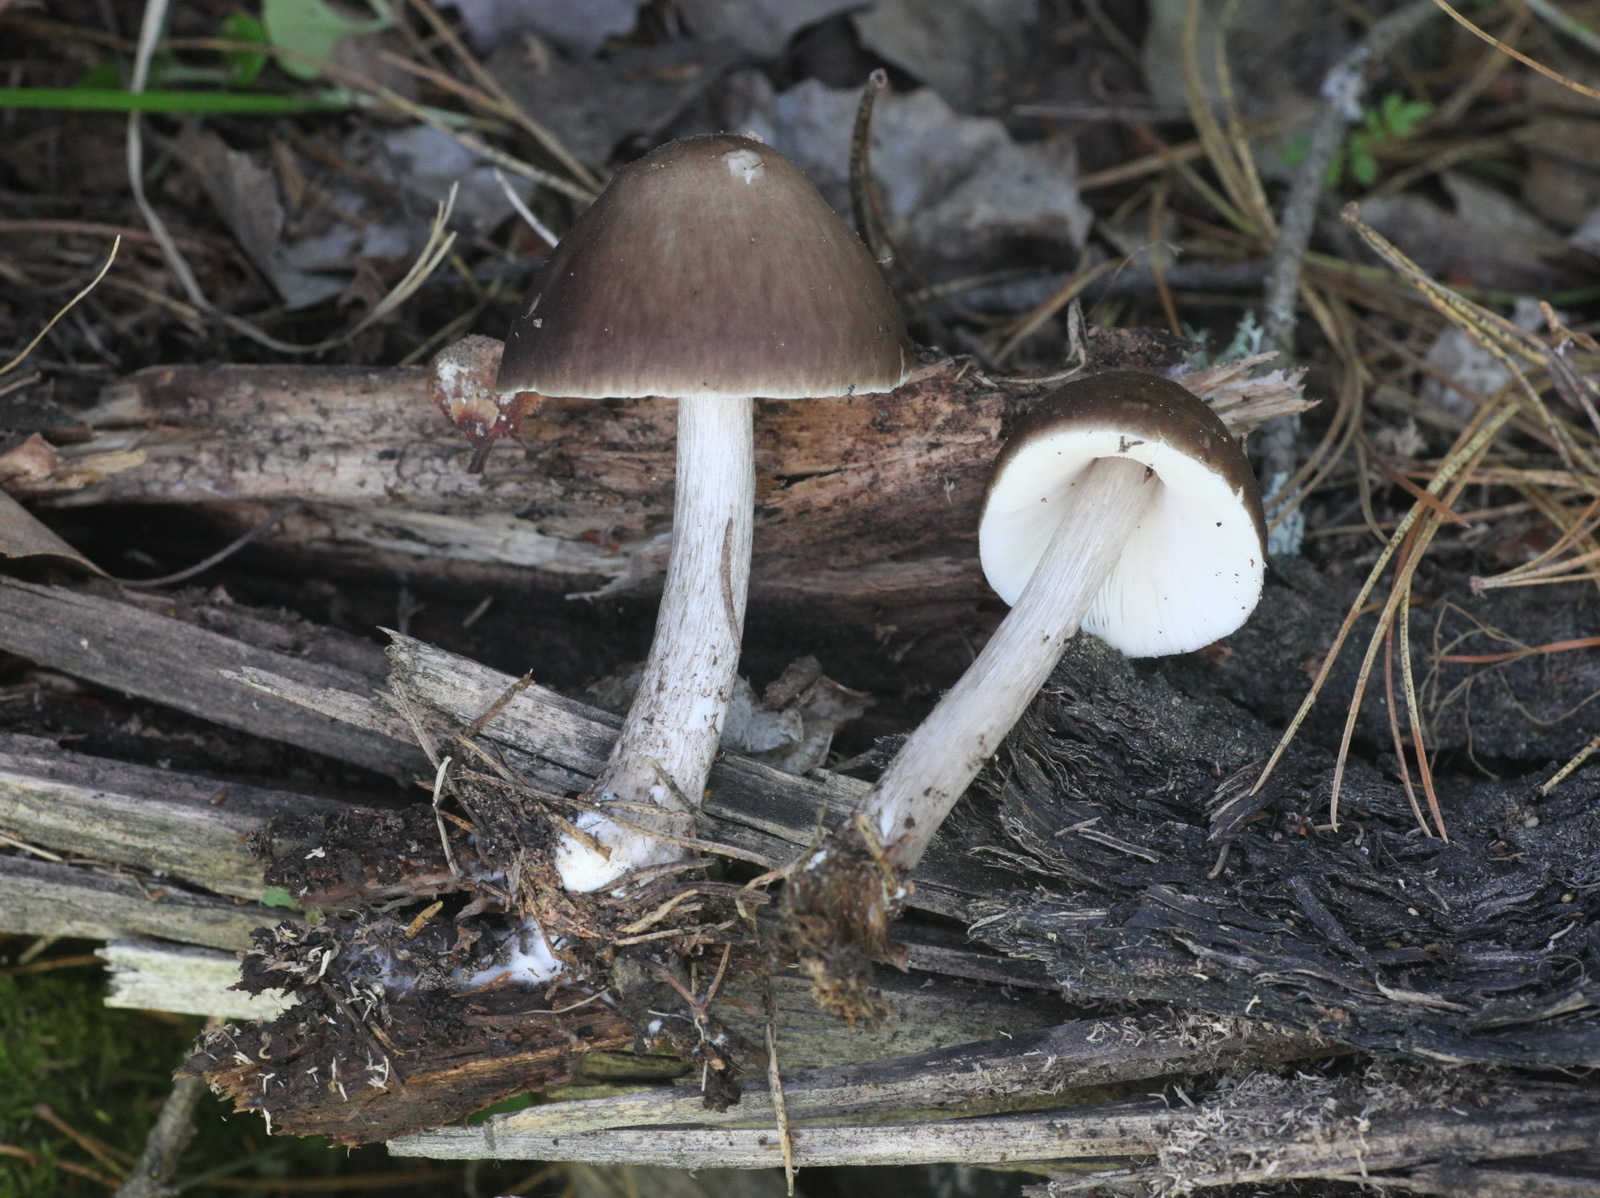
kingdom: Fungi
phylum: Basidiomycota
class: Agaricomycetes
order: Agaricales
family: Pluteaceae
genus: Pluteus
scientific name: Pluteus cervinus
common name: Deer shield
